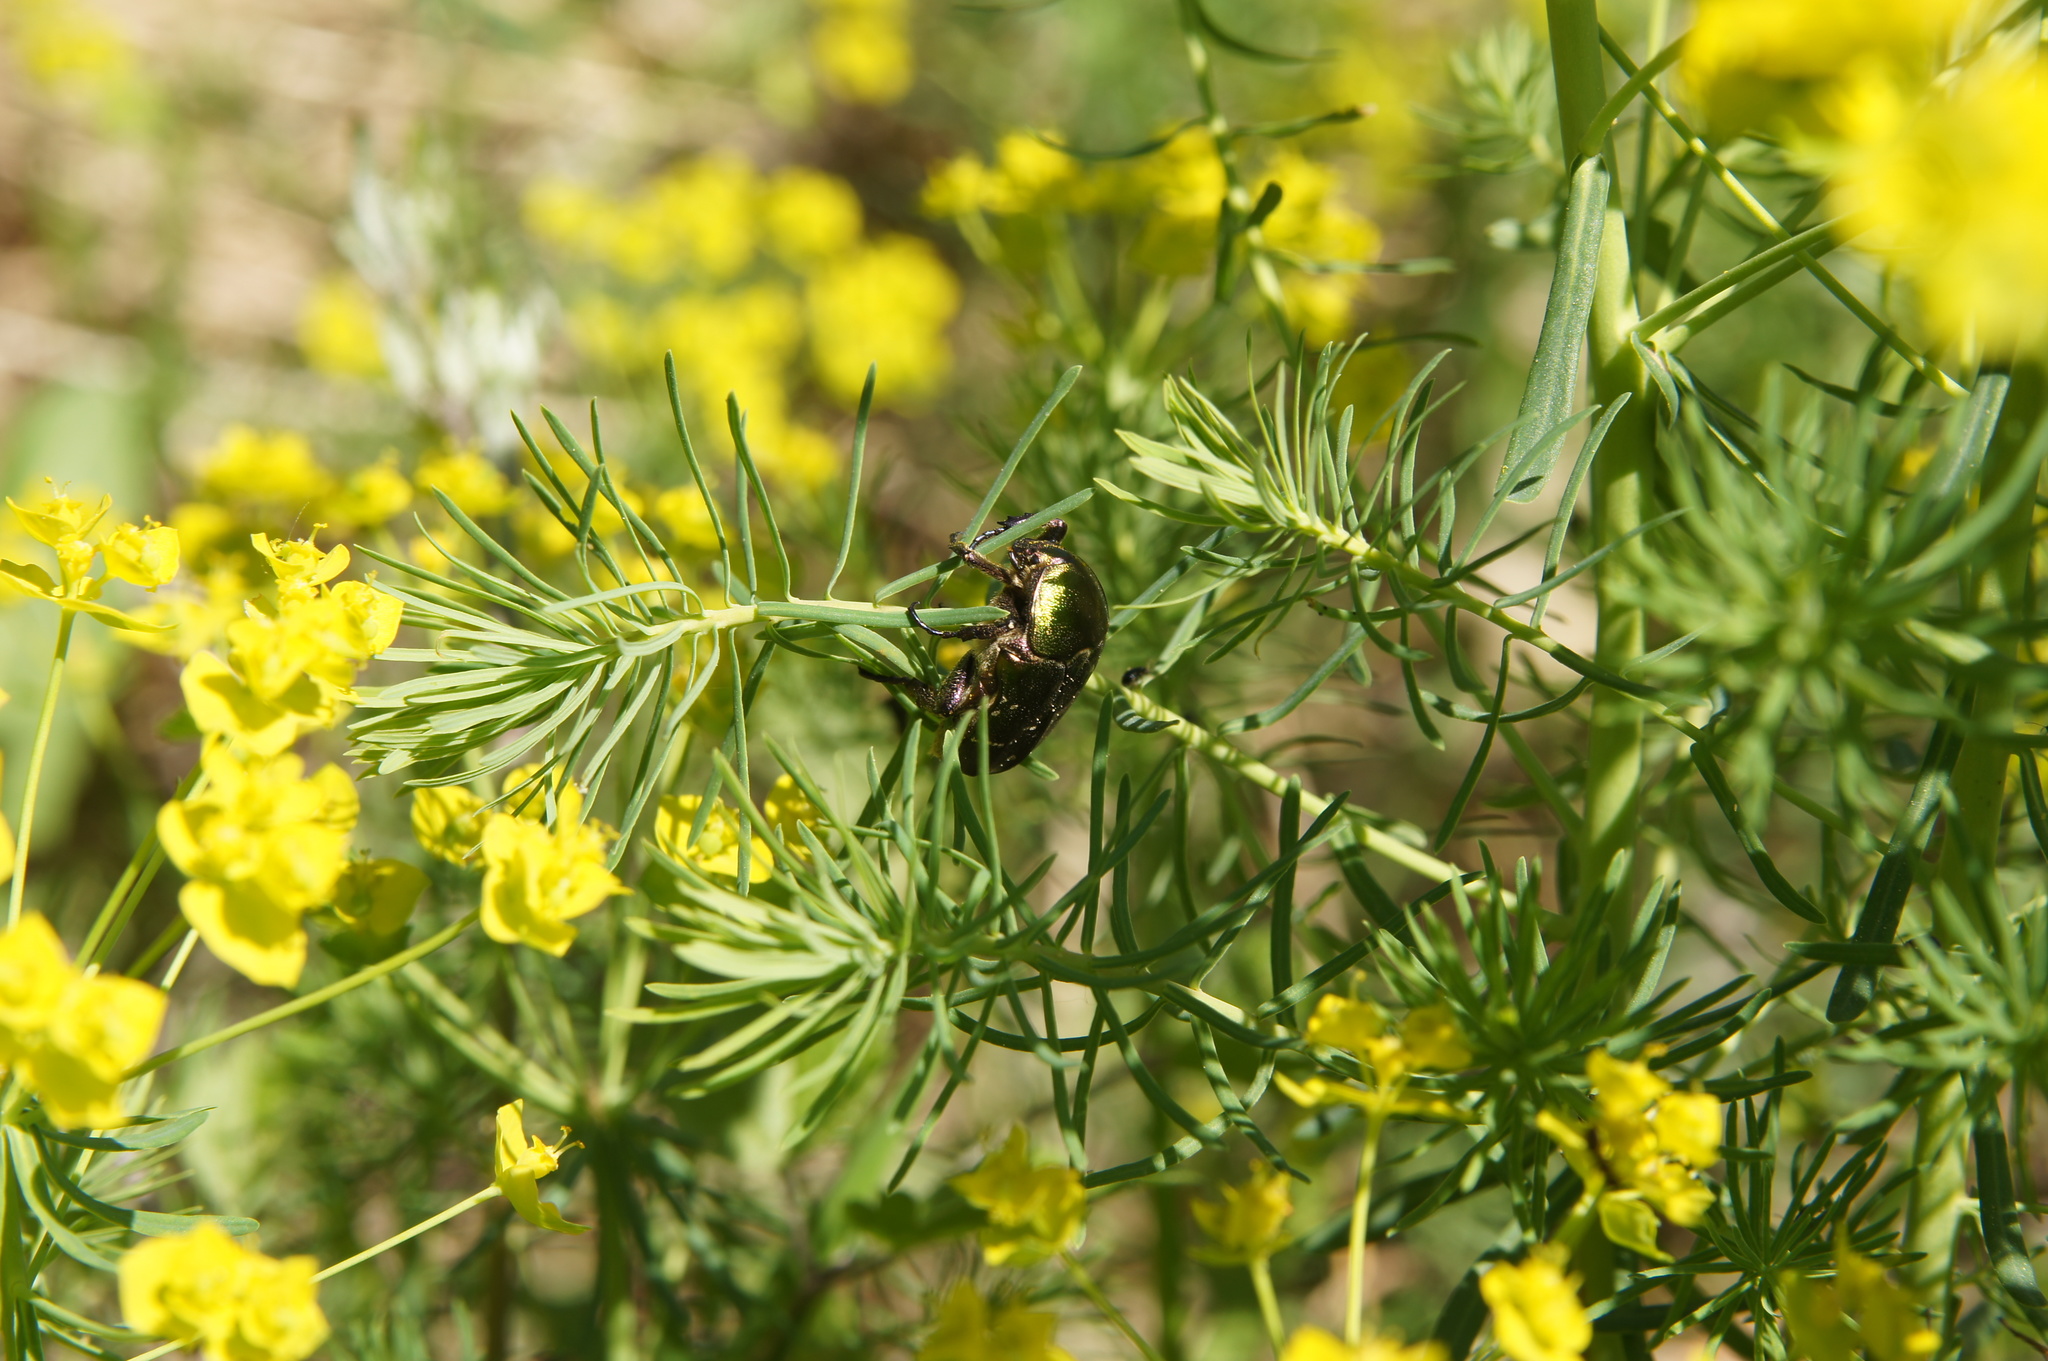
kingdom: Animalia
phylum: Arthropoda
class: Insecta
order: Coleoptera
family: Scarabaeidae
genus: Protaetia
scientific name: Protaetia cuprea
